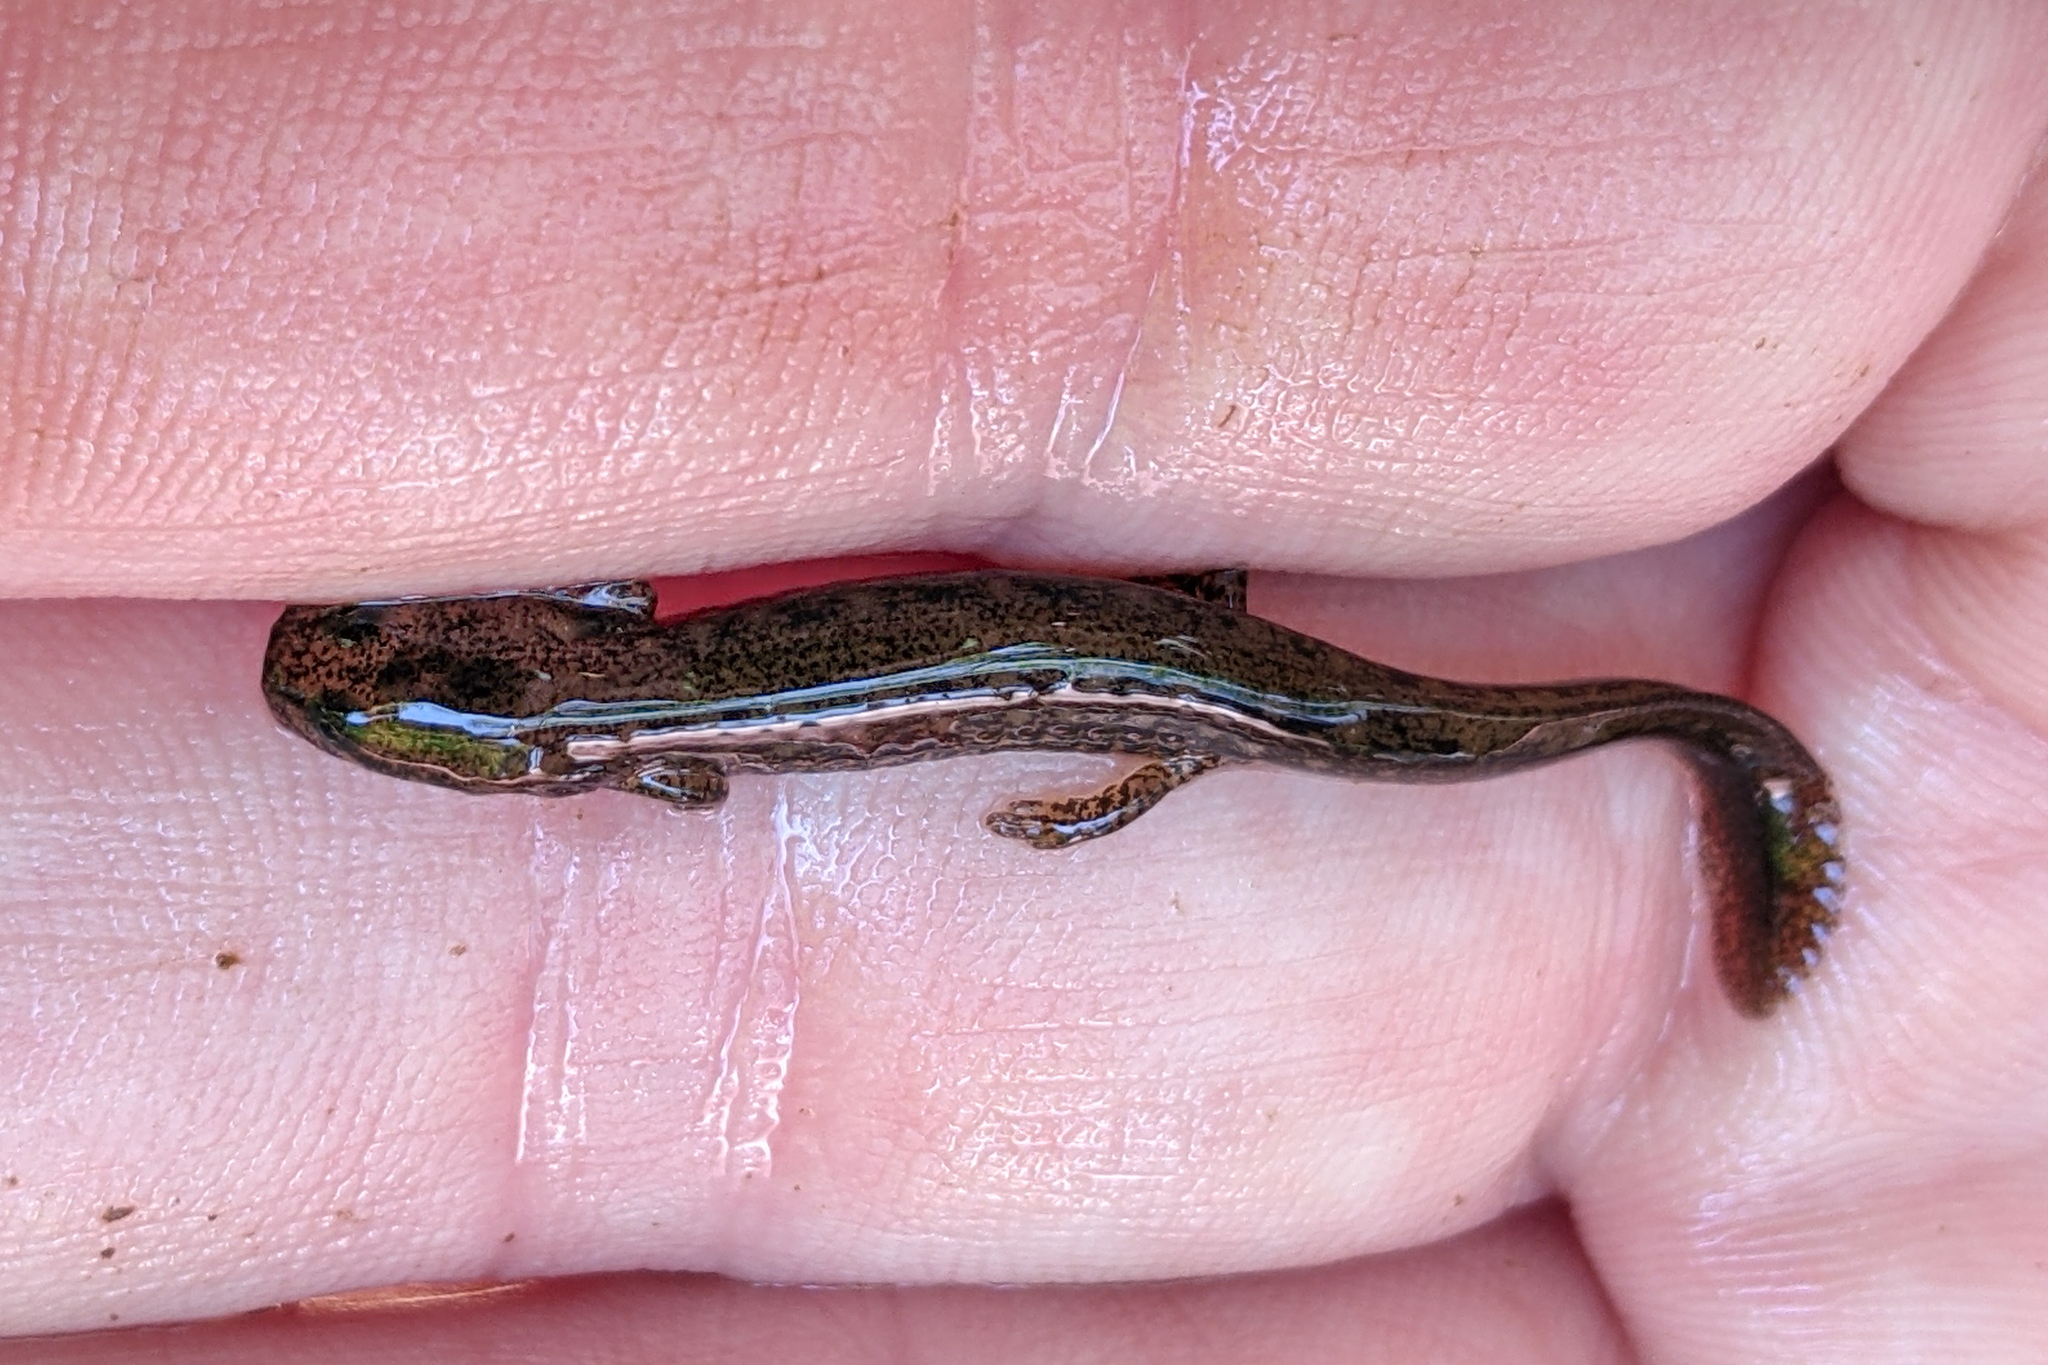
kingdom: Animalia
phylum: Chordata
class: Amphibia
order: Caudata
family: Plethodontidae
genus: Eurycea
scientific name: Eurycea bislineata
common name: Northern two-lined salamander
